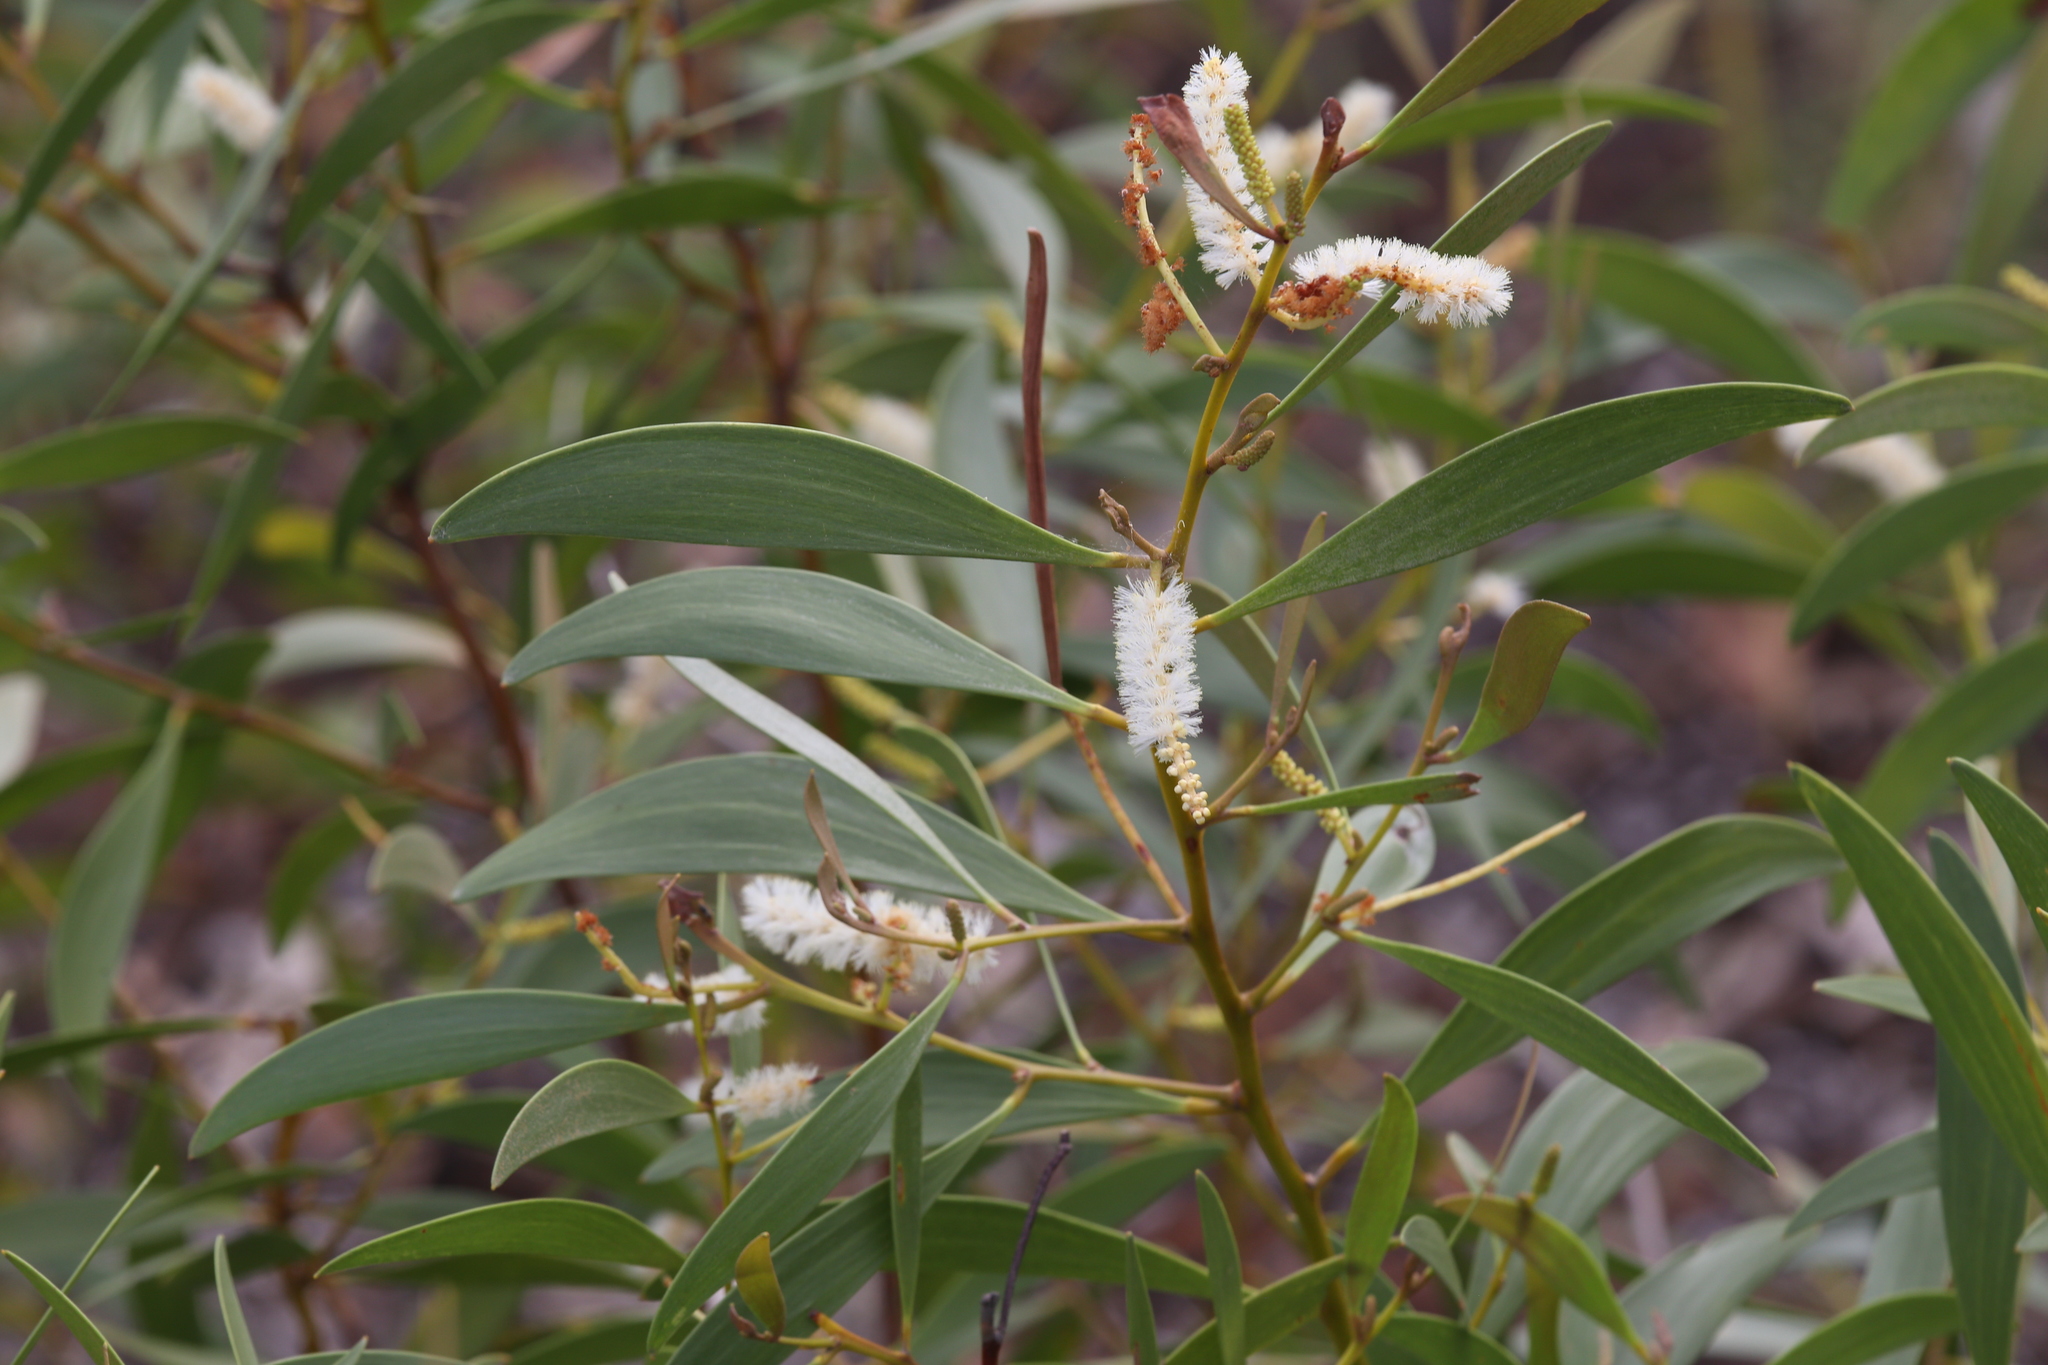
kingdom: Plantae
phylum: Tracheophyta
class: Magnoliopsida
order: Fabales
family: Fabaceae
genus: Acacia
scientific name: Acacia calyculata
